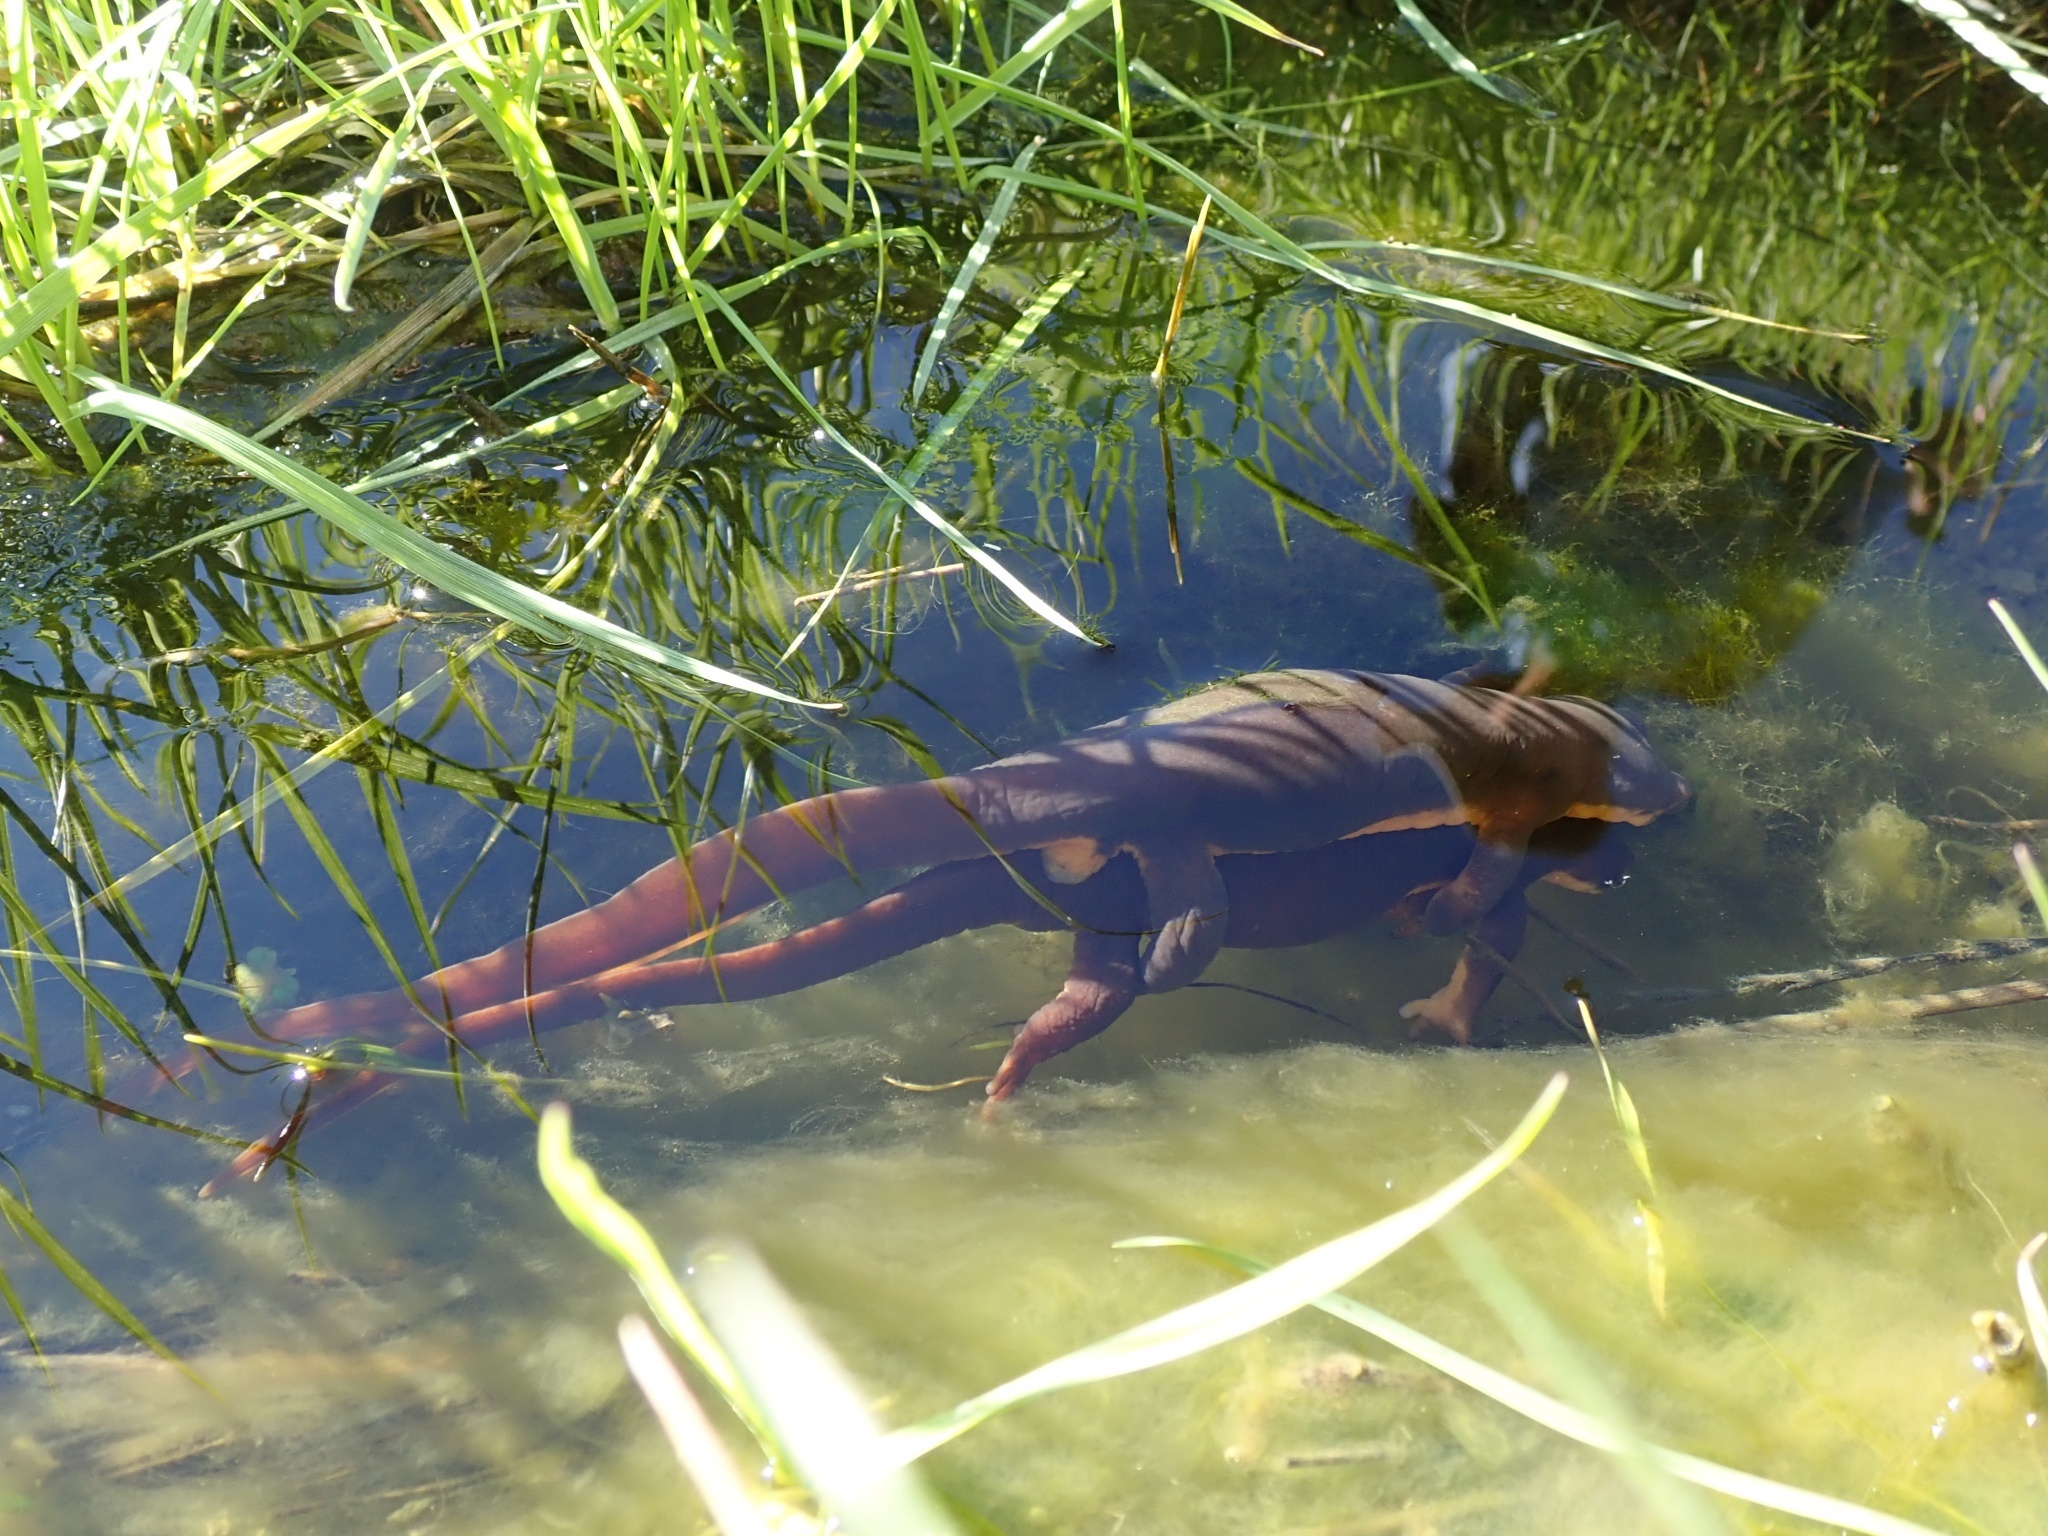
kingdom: Animalia
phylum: Chordata
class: Amphibia
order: Caudata
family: Salamandridae
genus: Taricha
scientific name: Taricha torosa
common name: California newt
